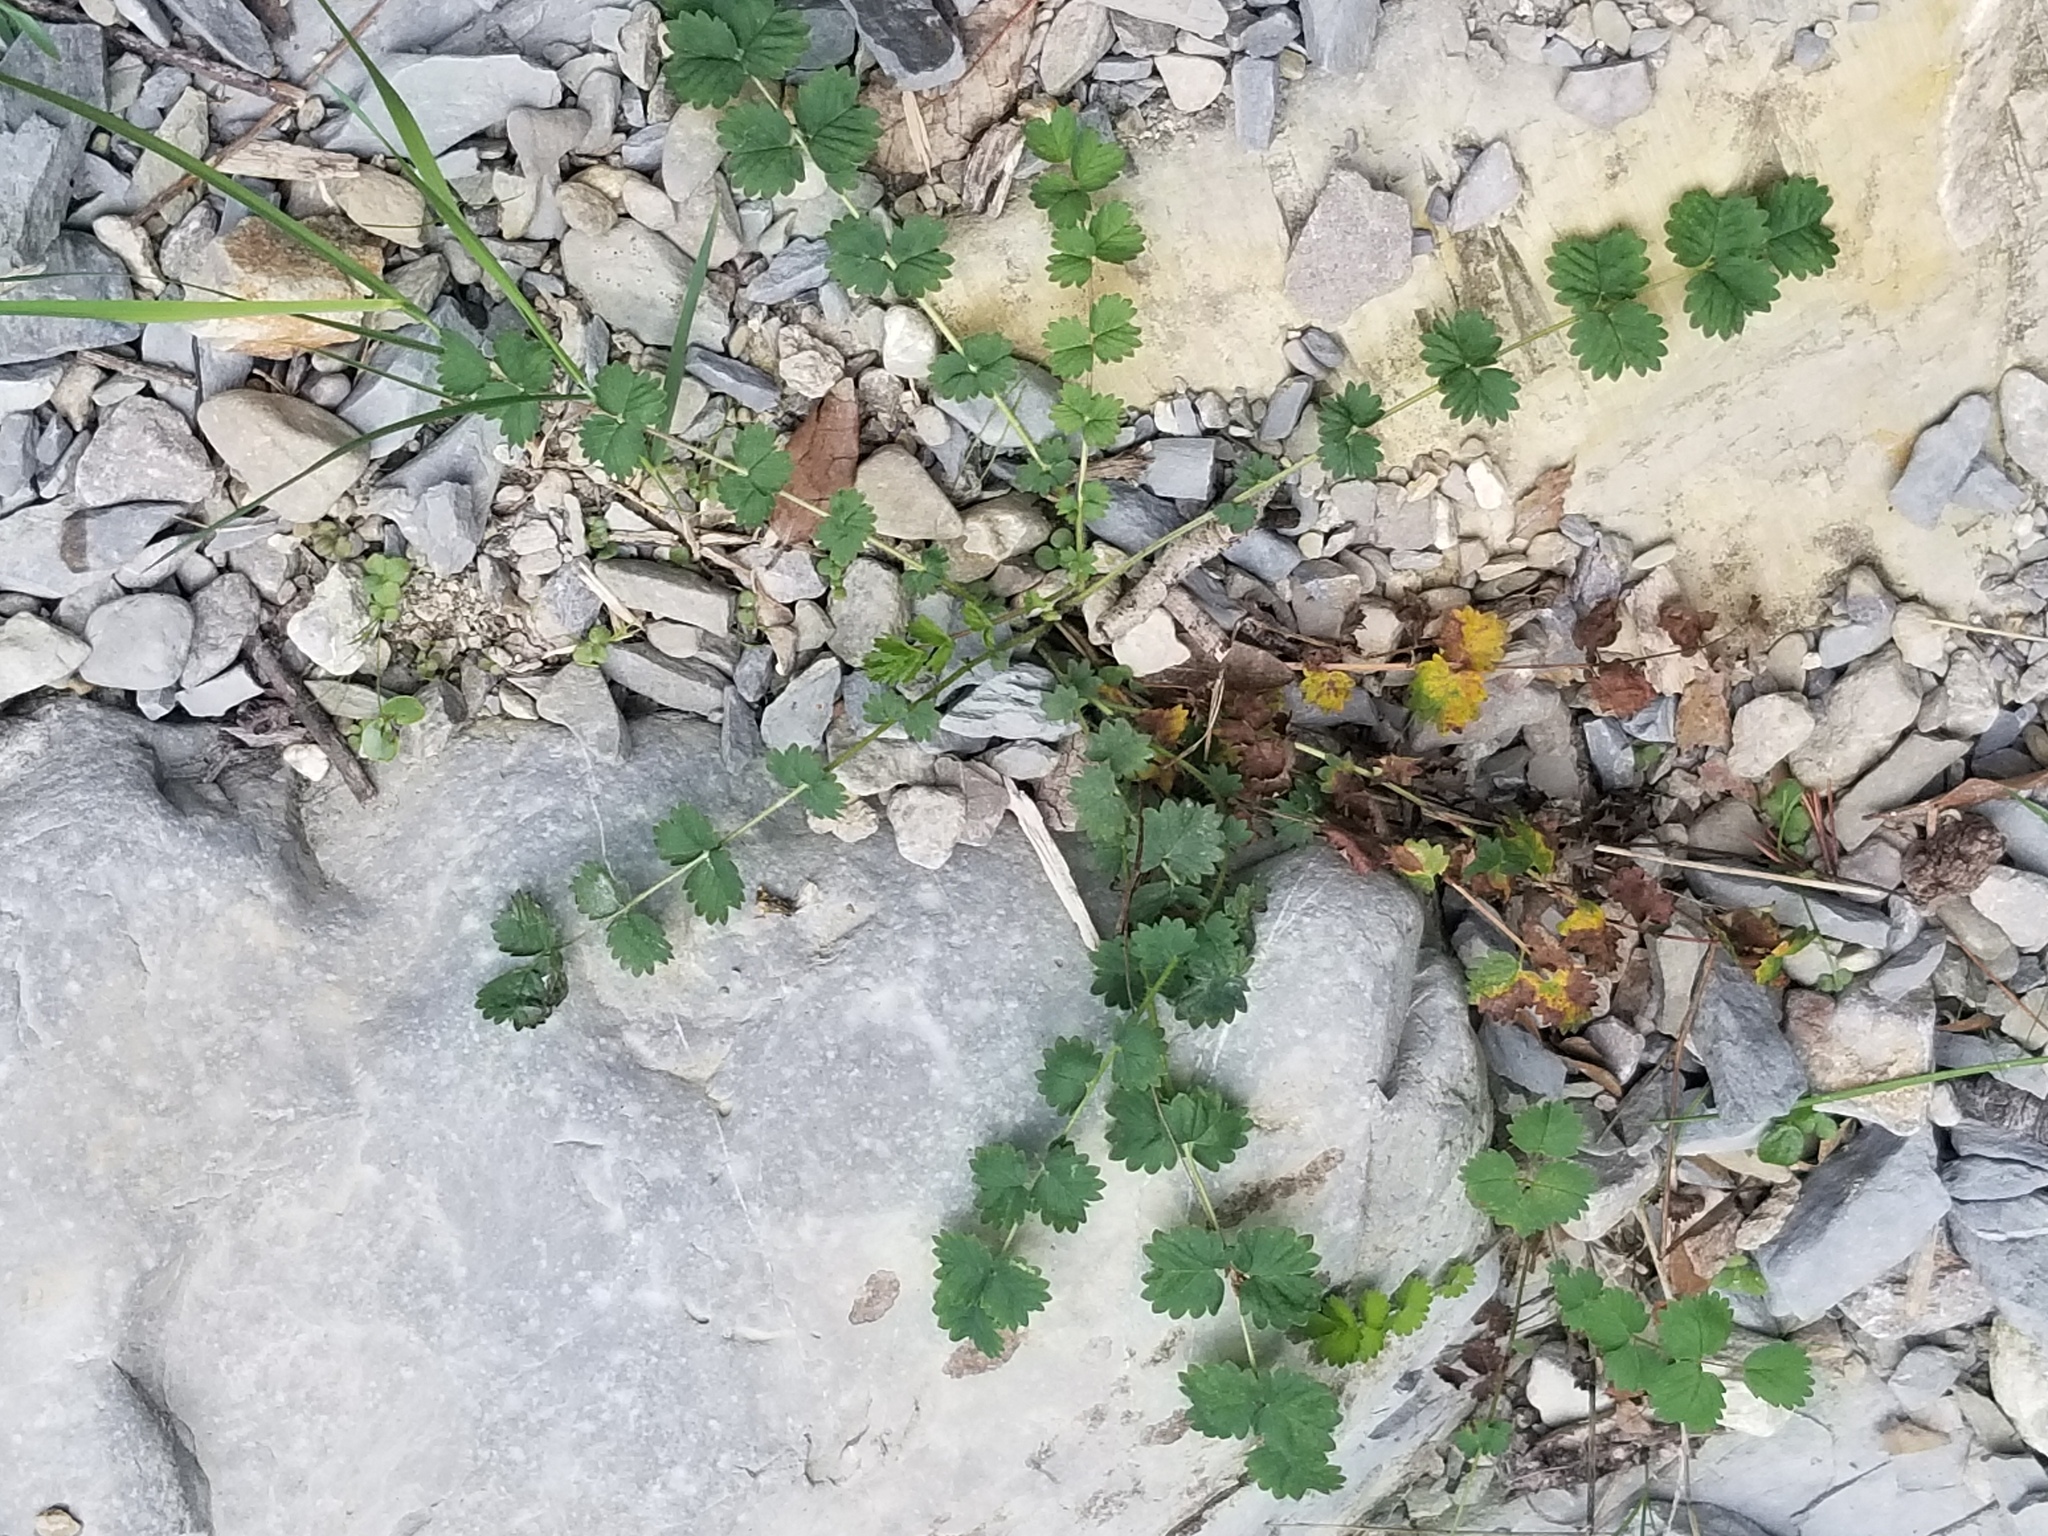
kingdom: Plantae
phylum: Tracheophyta
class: Magnoliopsida
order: Rosales
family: Rosaceae
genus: Poterium
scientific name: Poterium sanguisorba
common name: Salad burnet
